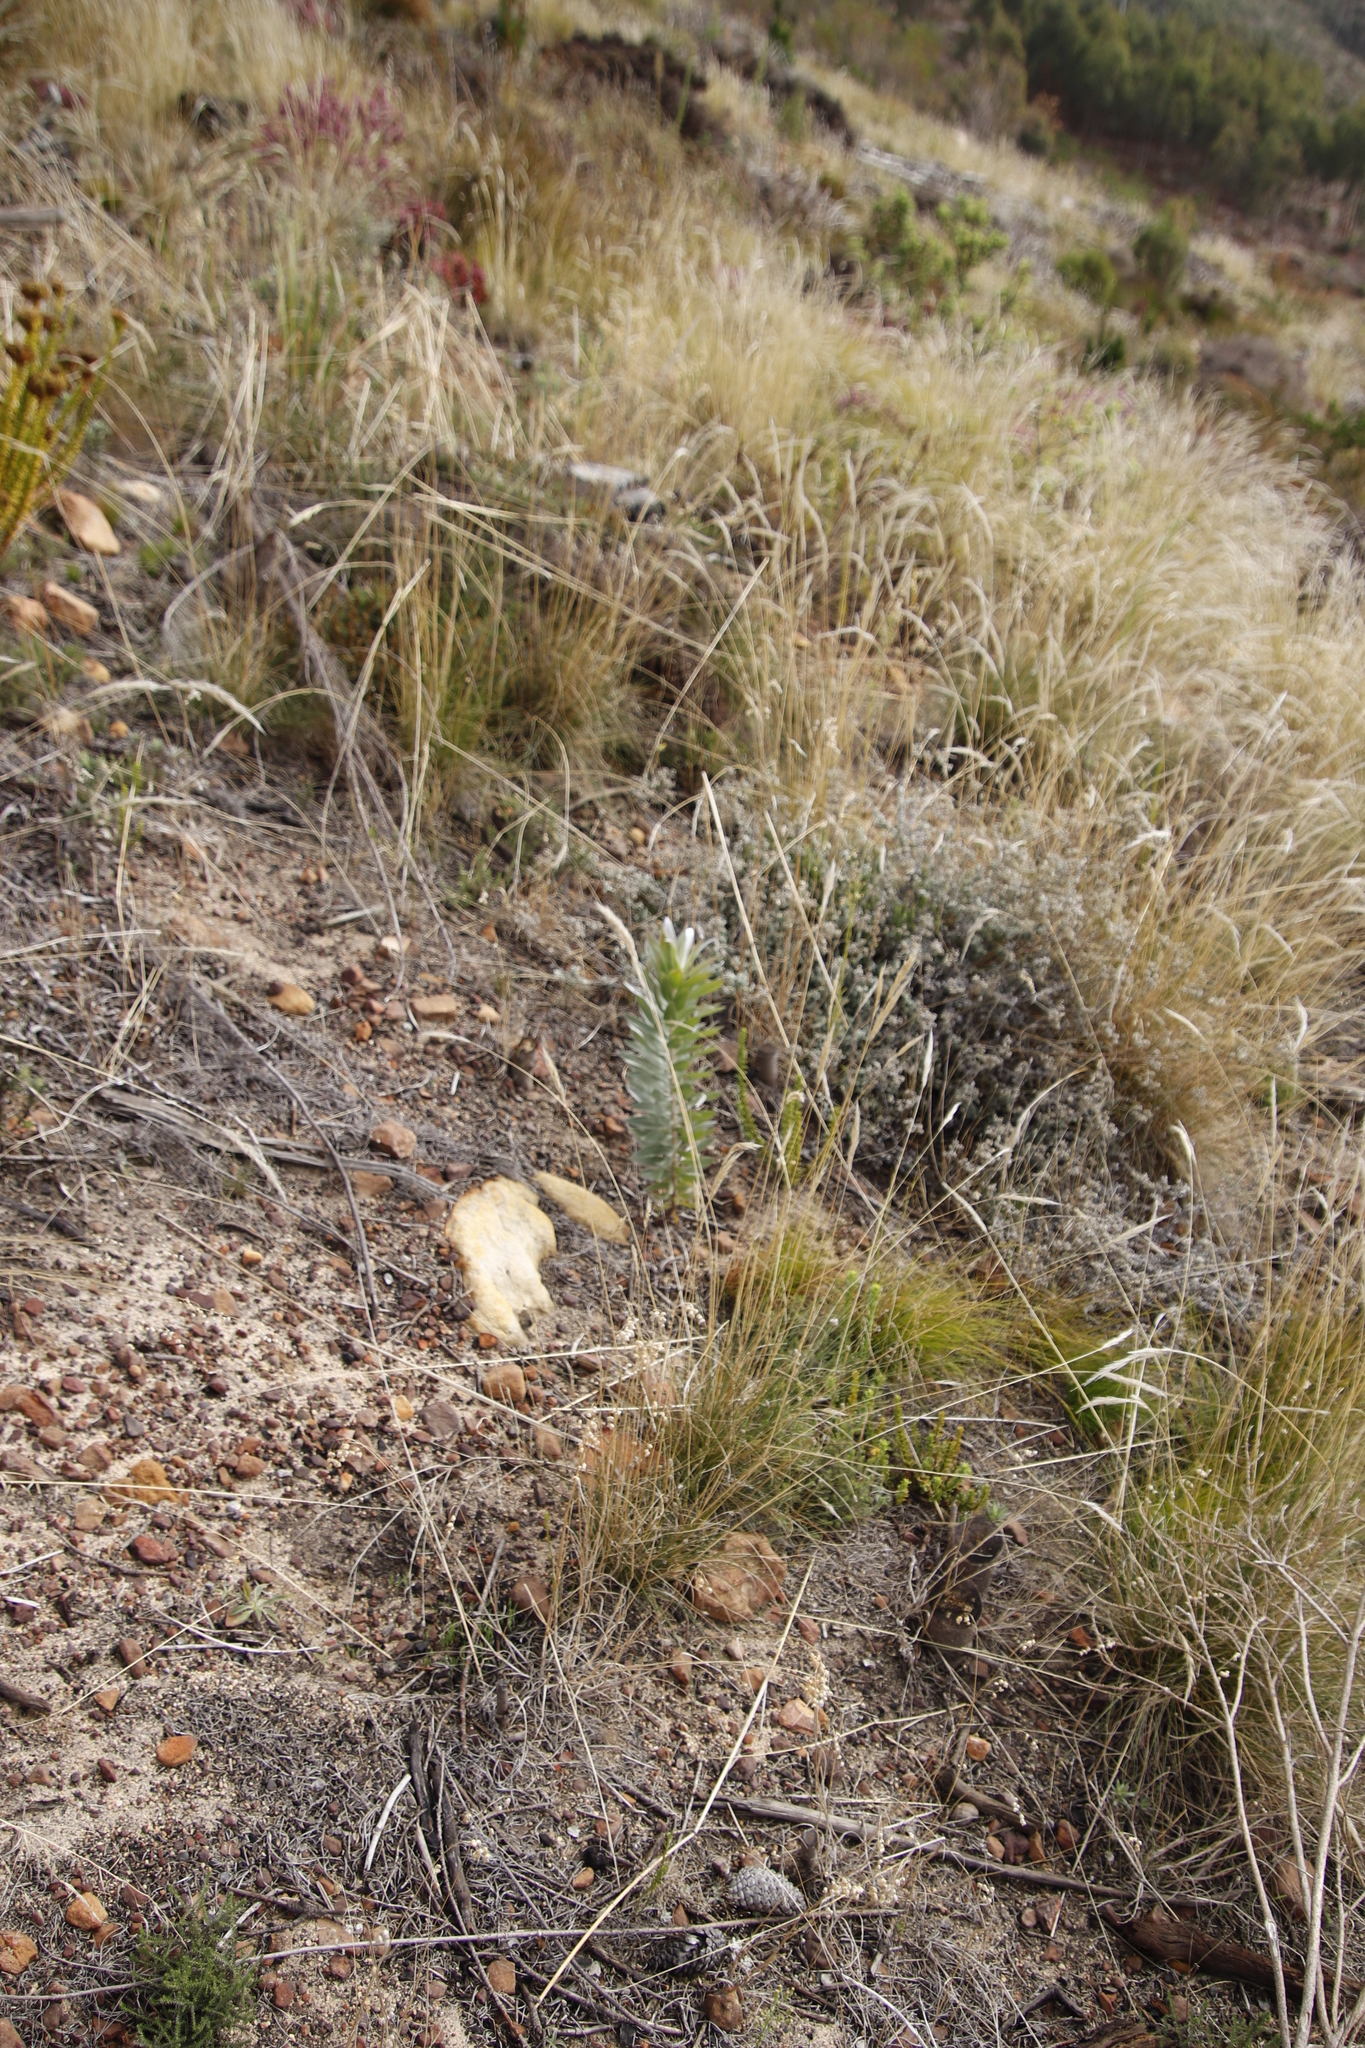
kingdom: Plantae
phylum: Tracheophyta
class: Magnoliopsida
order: Proteales
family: Proteaceae
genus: Leucadendron
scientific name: Leucadendron argenteum
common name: Cape silver tree
